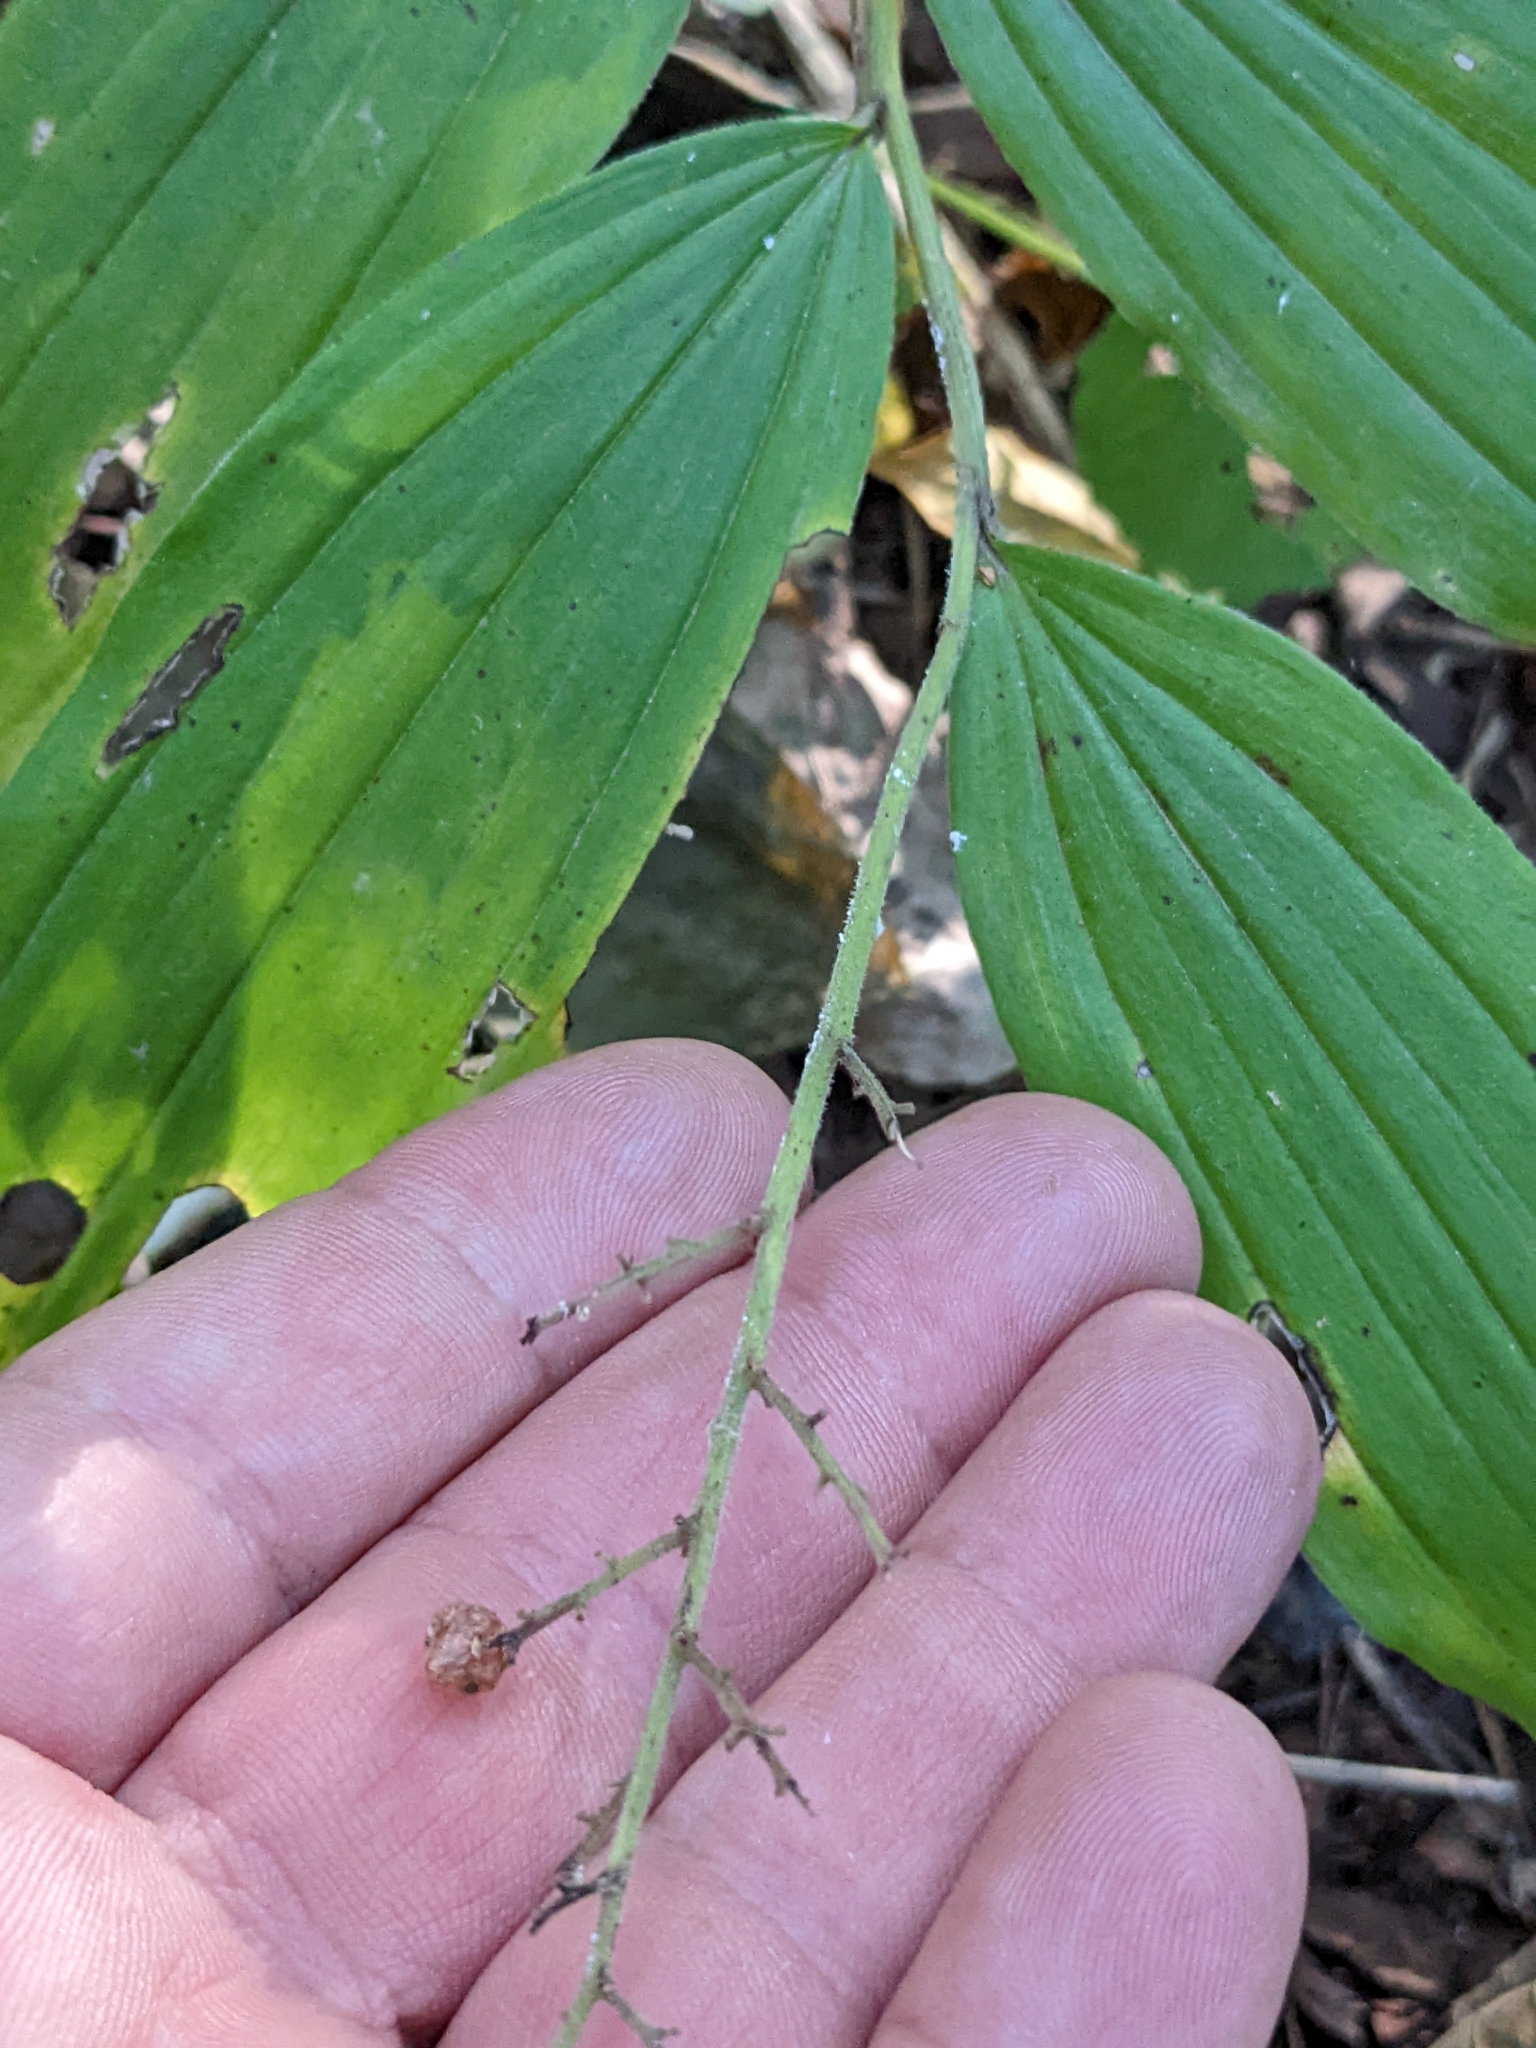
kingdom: Plantae
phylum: Tracheophyta
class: Liliopsida
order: Asparagales
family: Asparagaceae
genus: Maianthemum
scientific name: Maianthemum racemosum
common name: False spikenard
